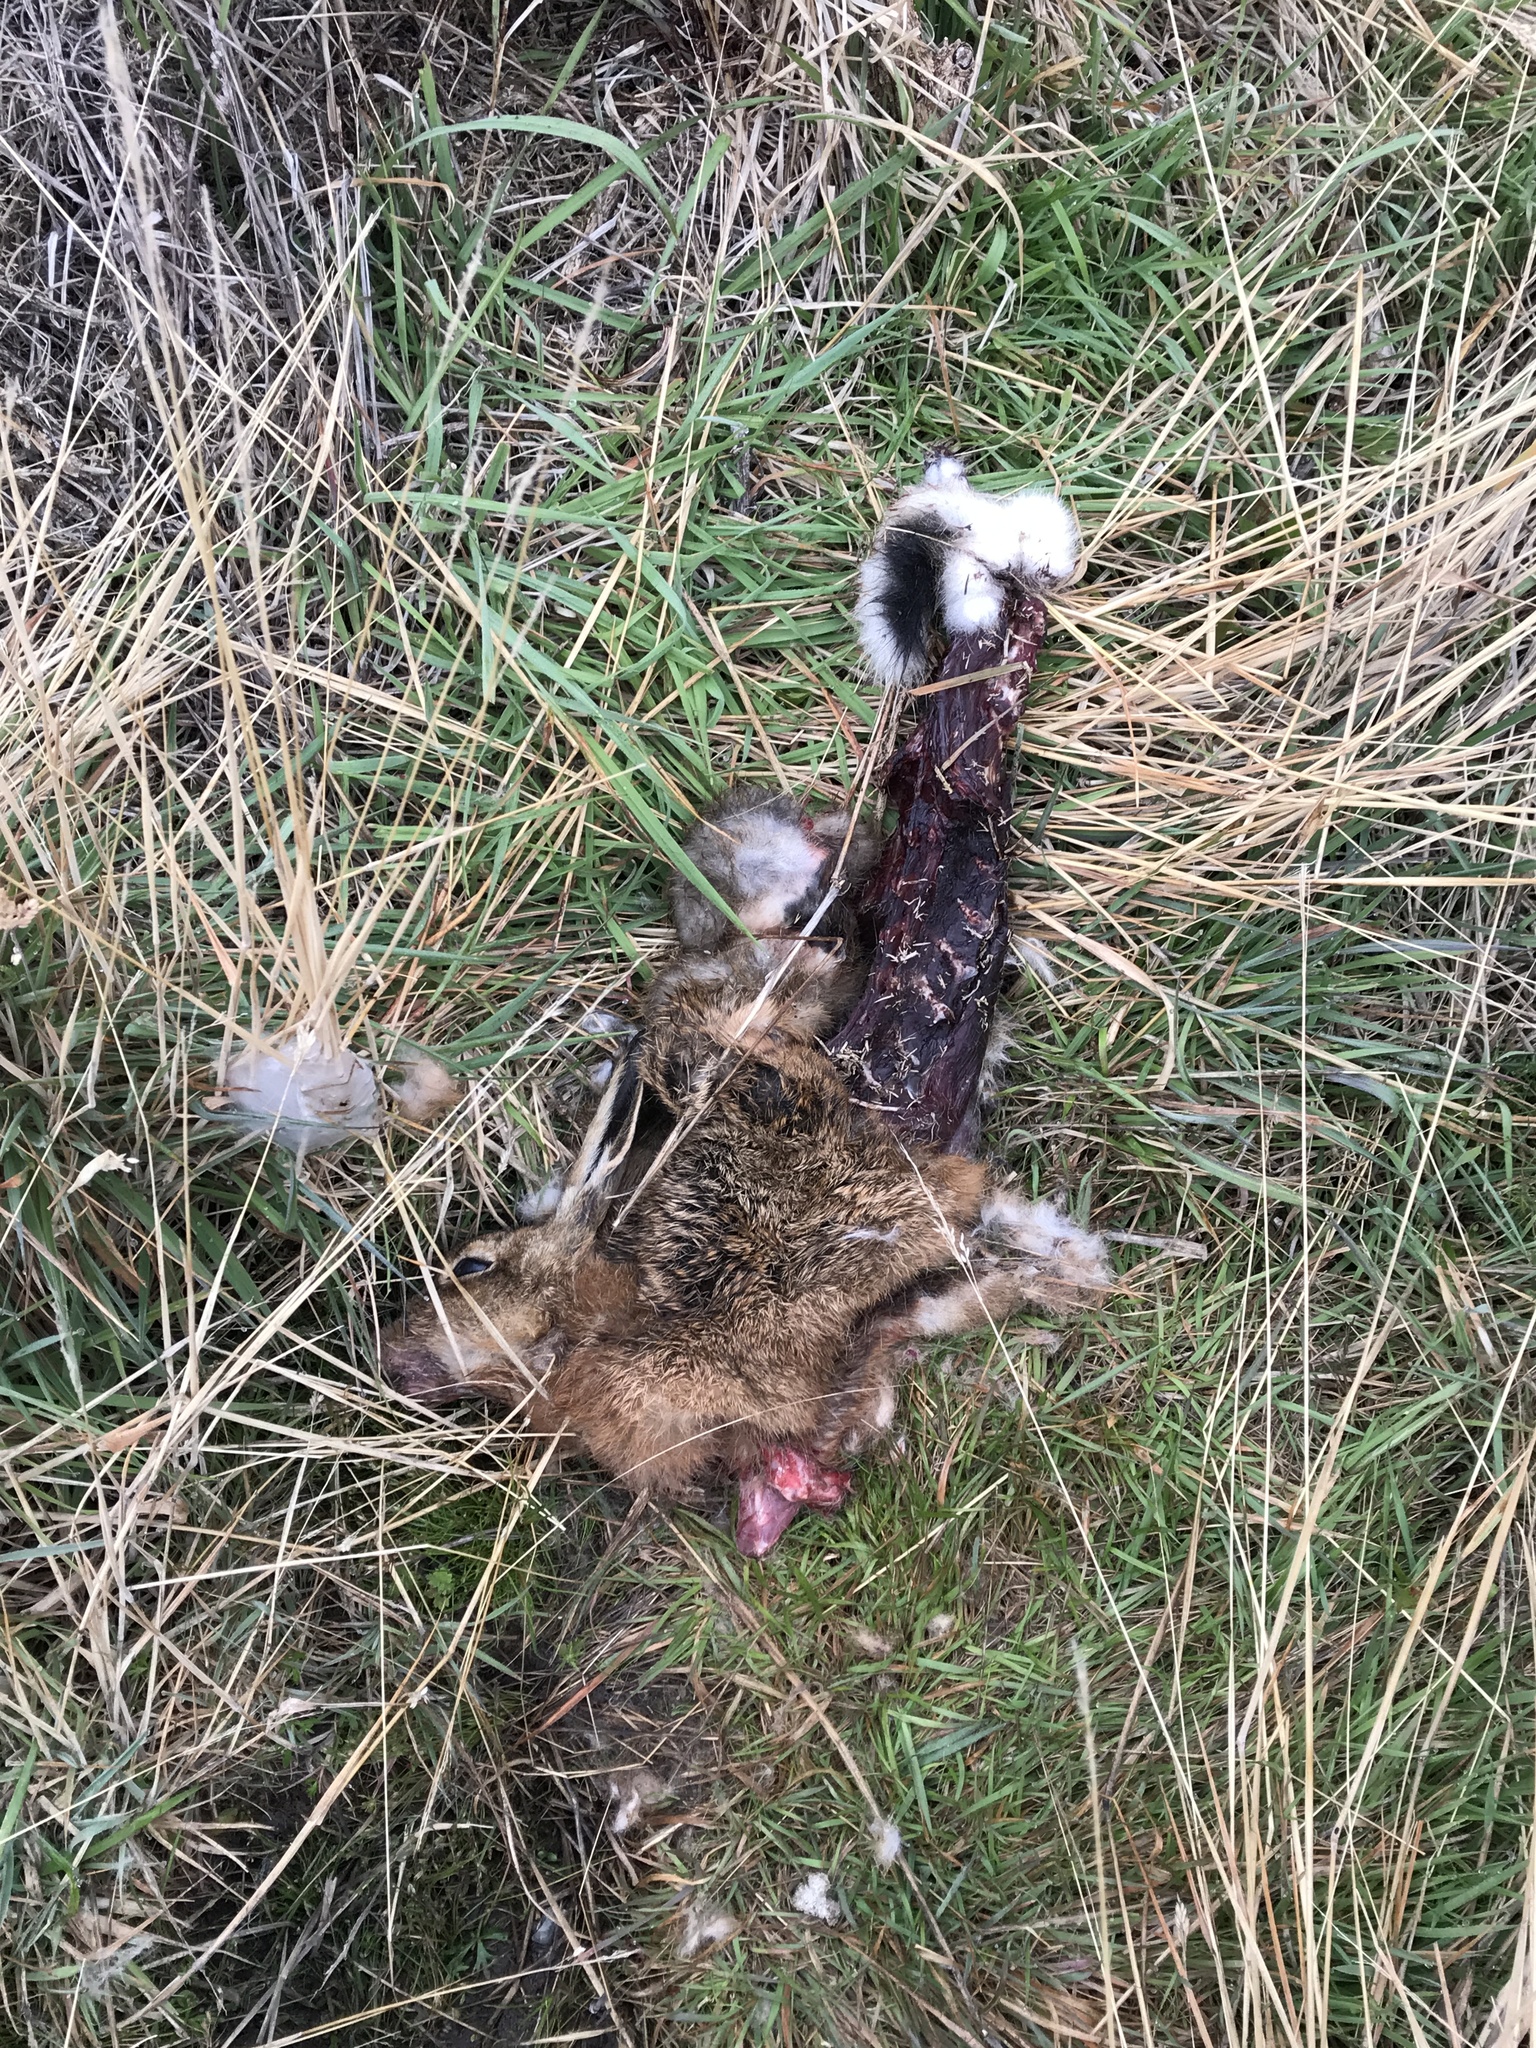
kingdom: Animalia
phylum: Chordata
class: Mammalia
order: Lagomorpha
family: Leporidae
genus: Lepus
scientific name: Lepus europaeus
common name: European hare
